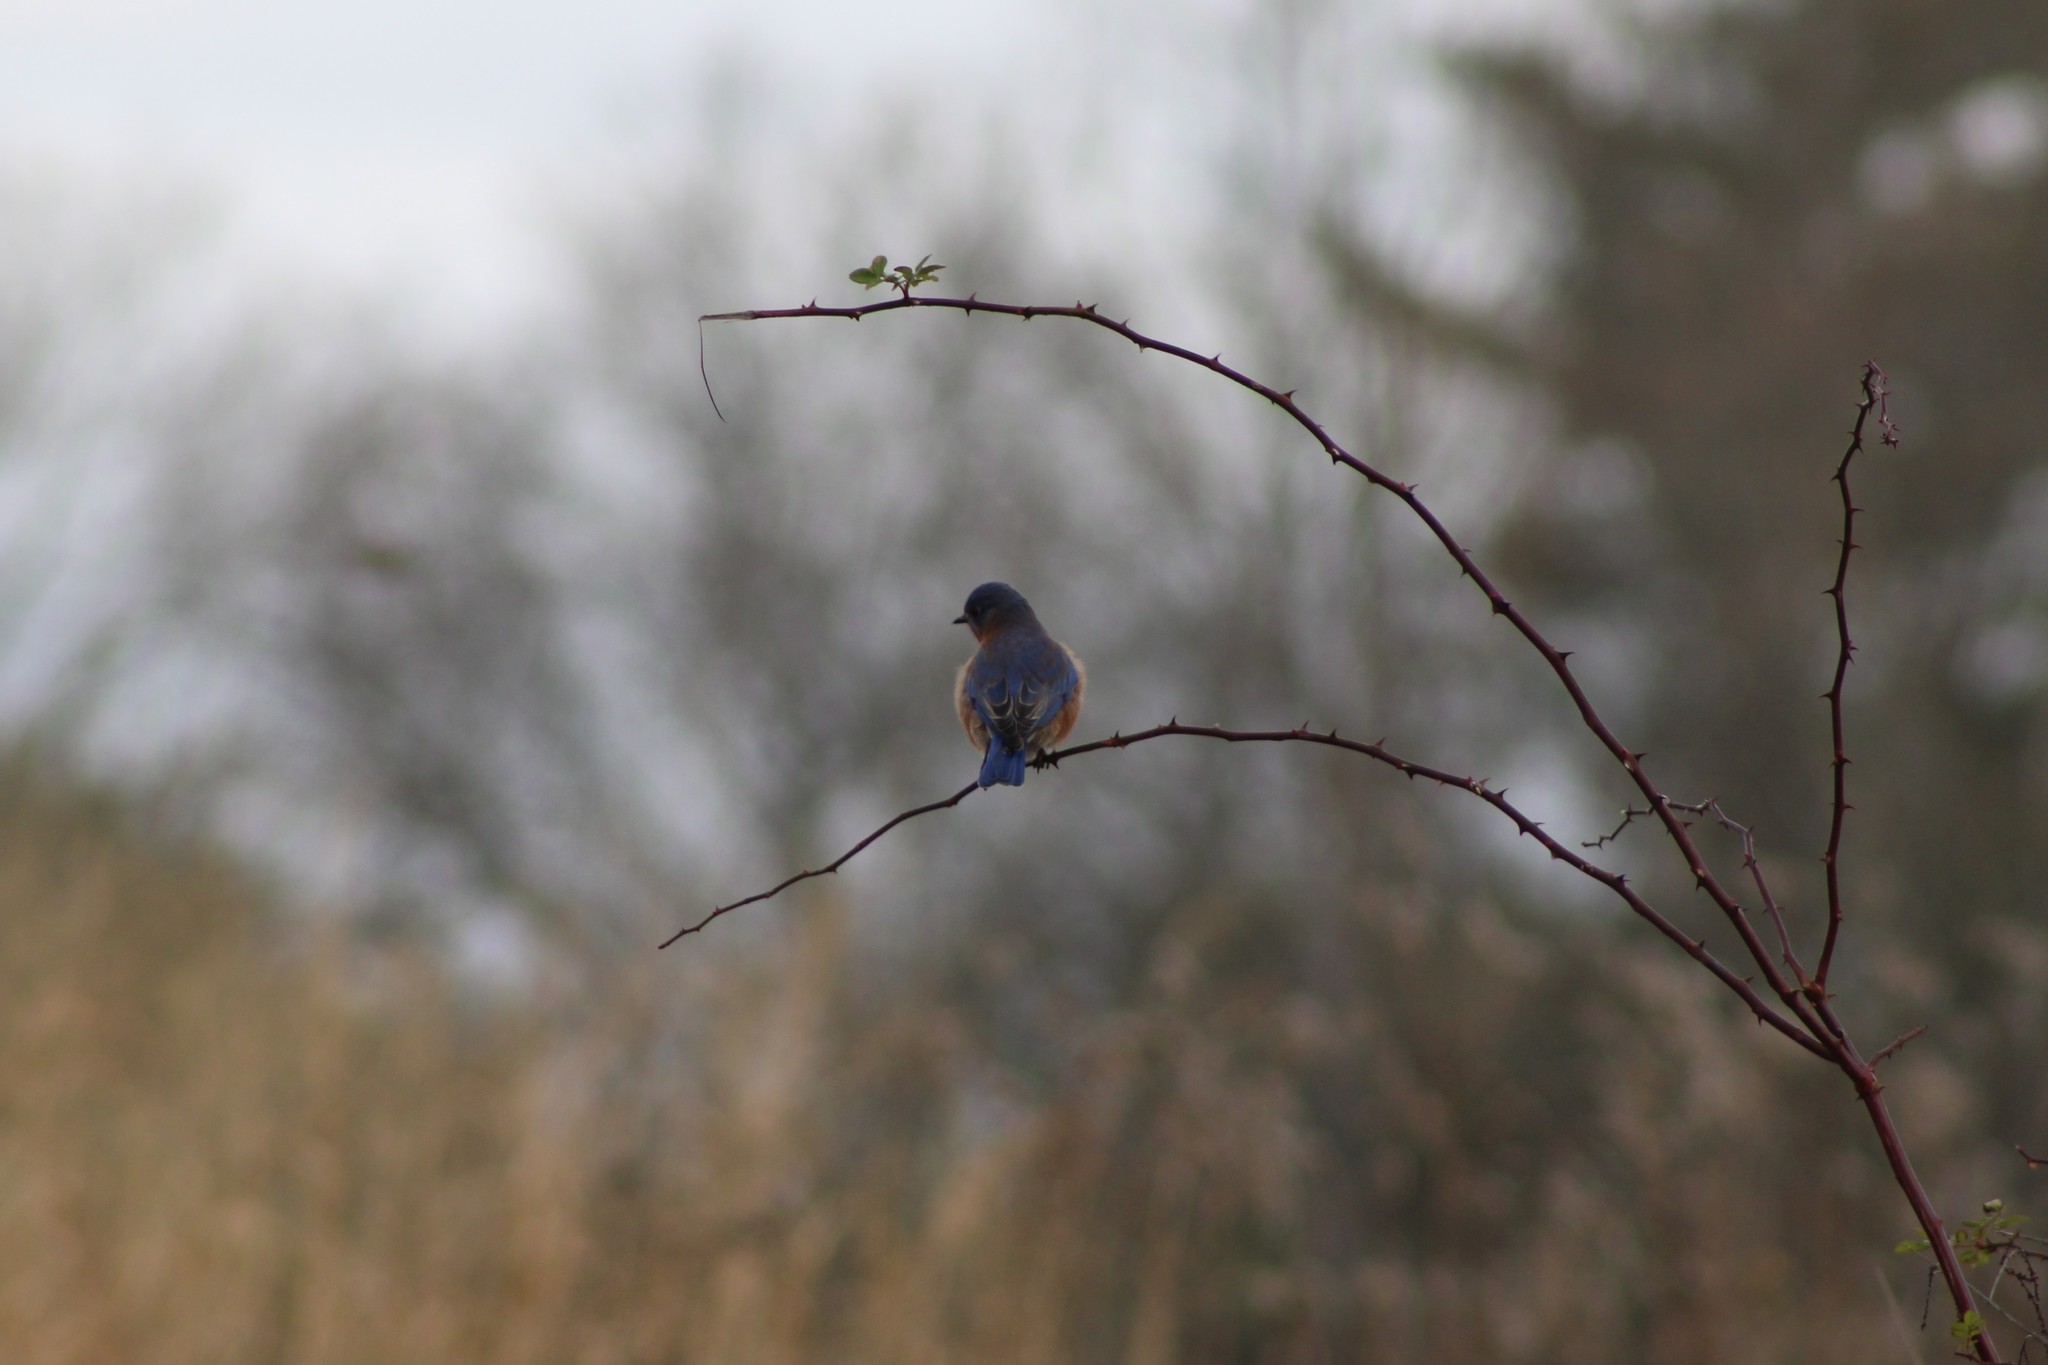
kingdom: Animalia
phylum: Chordata
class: Aves
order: Passeriformes
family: Turdidae
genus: Sialia
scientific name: Sialia sialis
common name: Eastern bluebird
